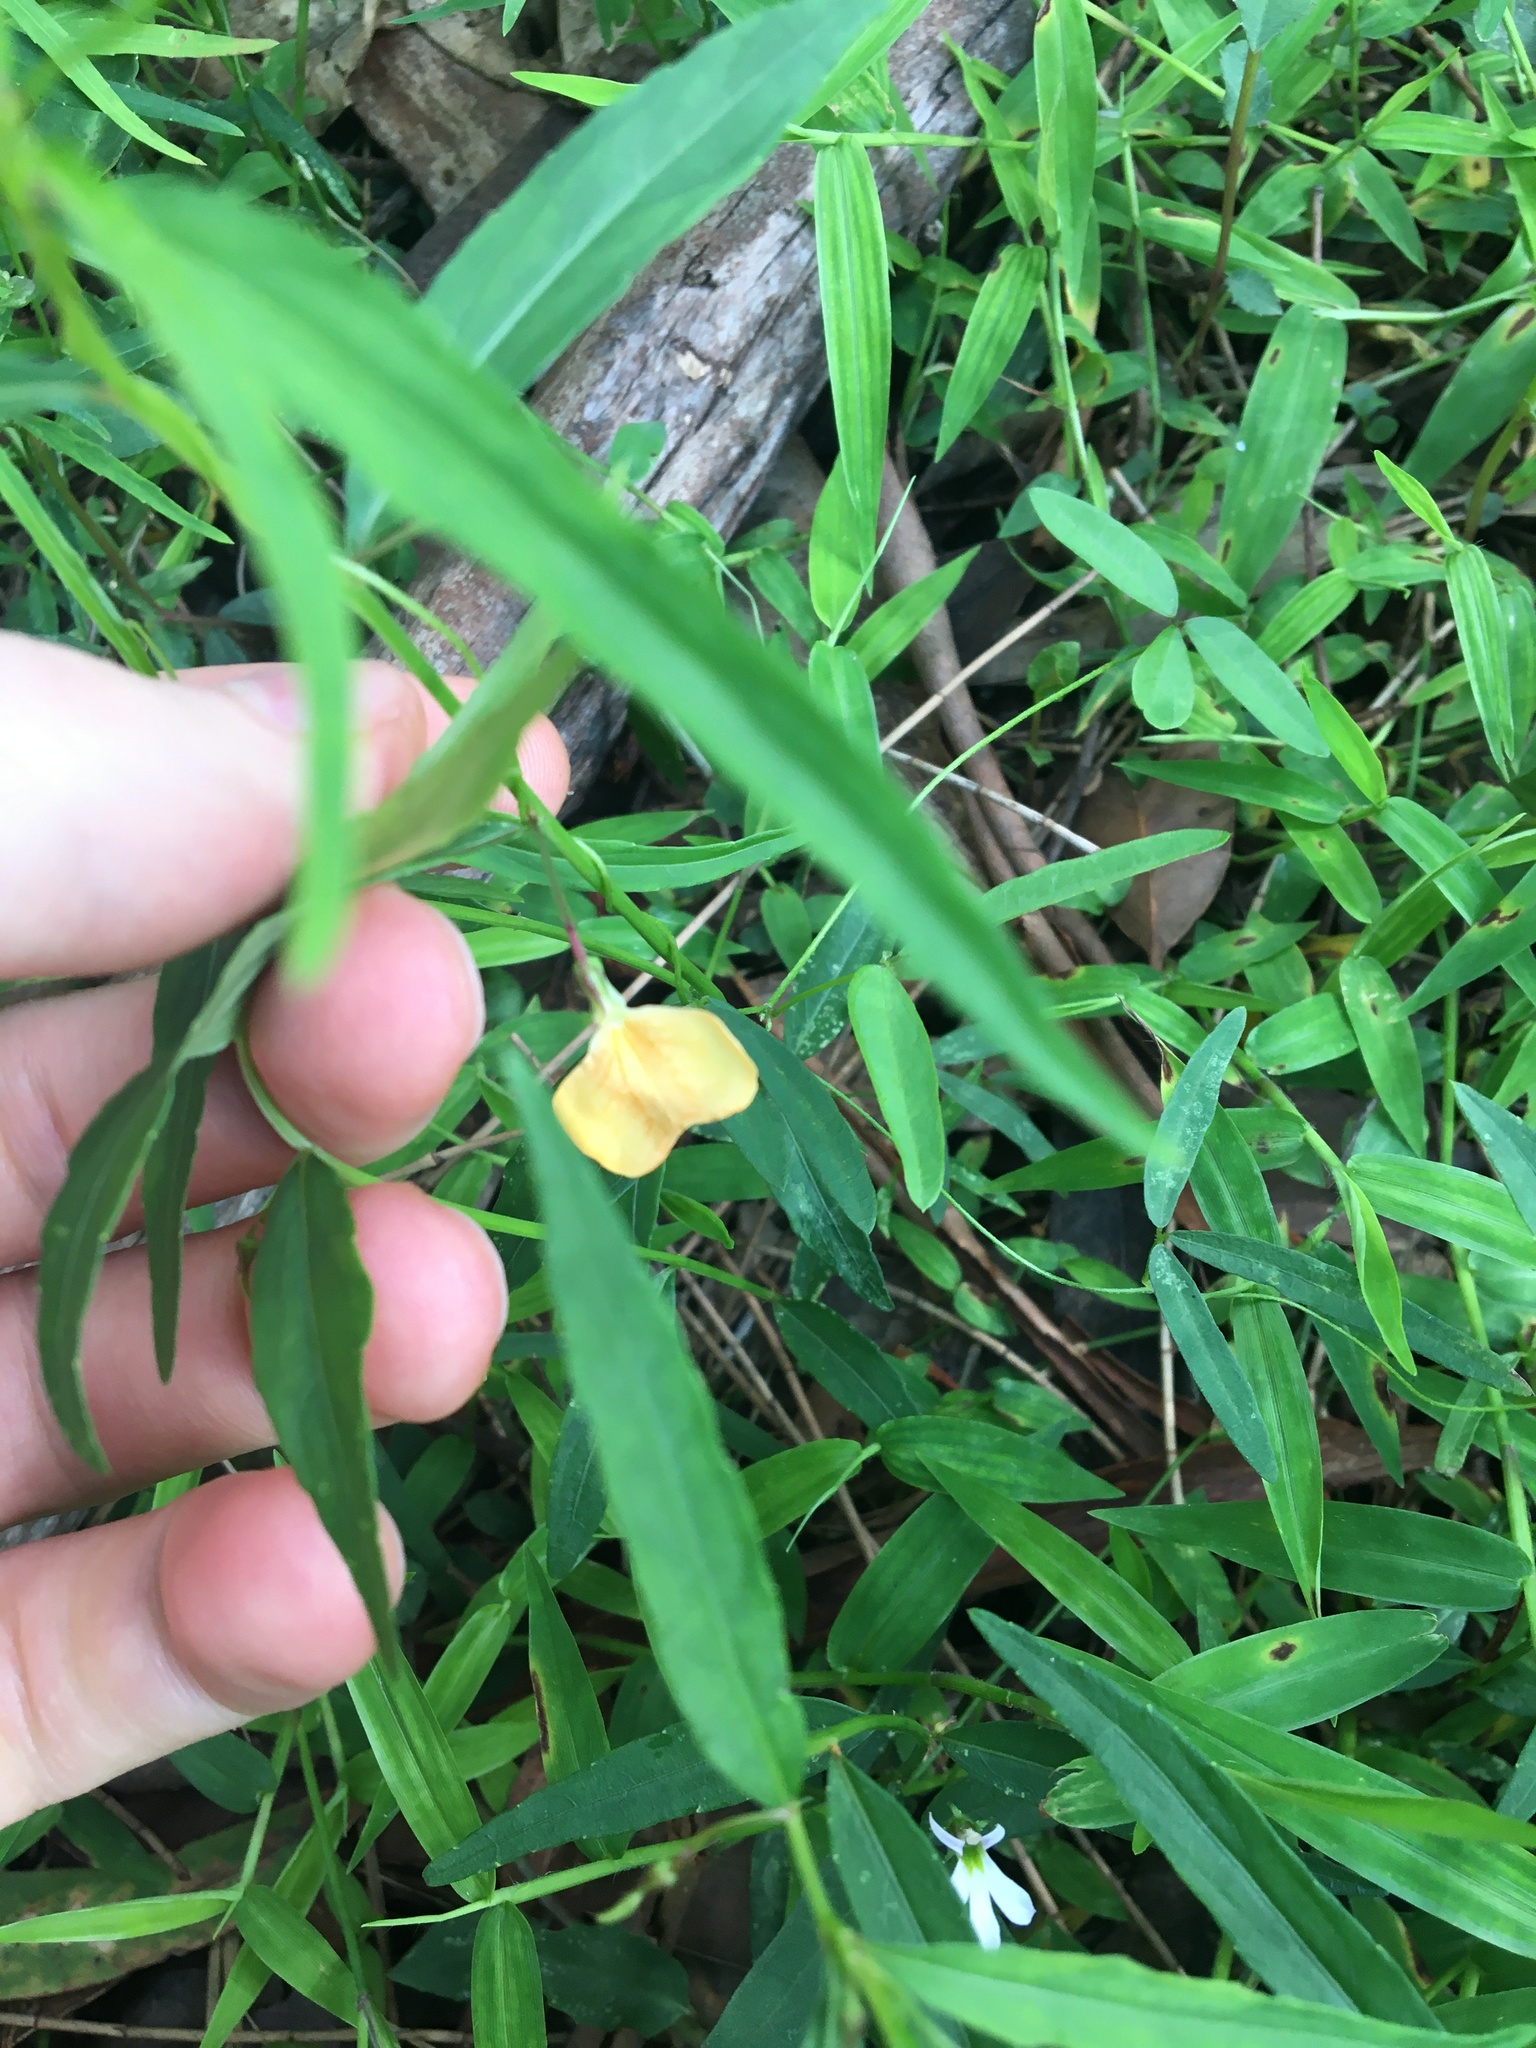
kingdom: Plantae
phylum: Tracheophyta
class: Magnoliopsida
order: Malpighiales
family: Violaceae
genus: Pigea
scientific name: Pigea stellarioides
